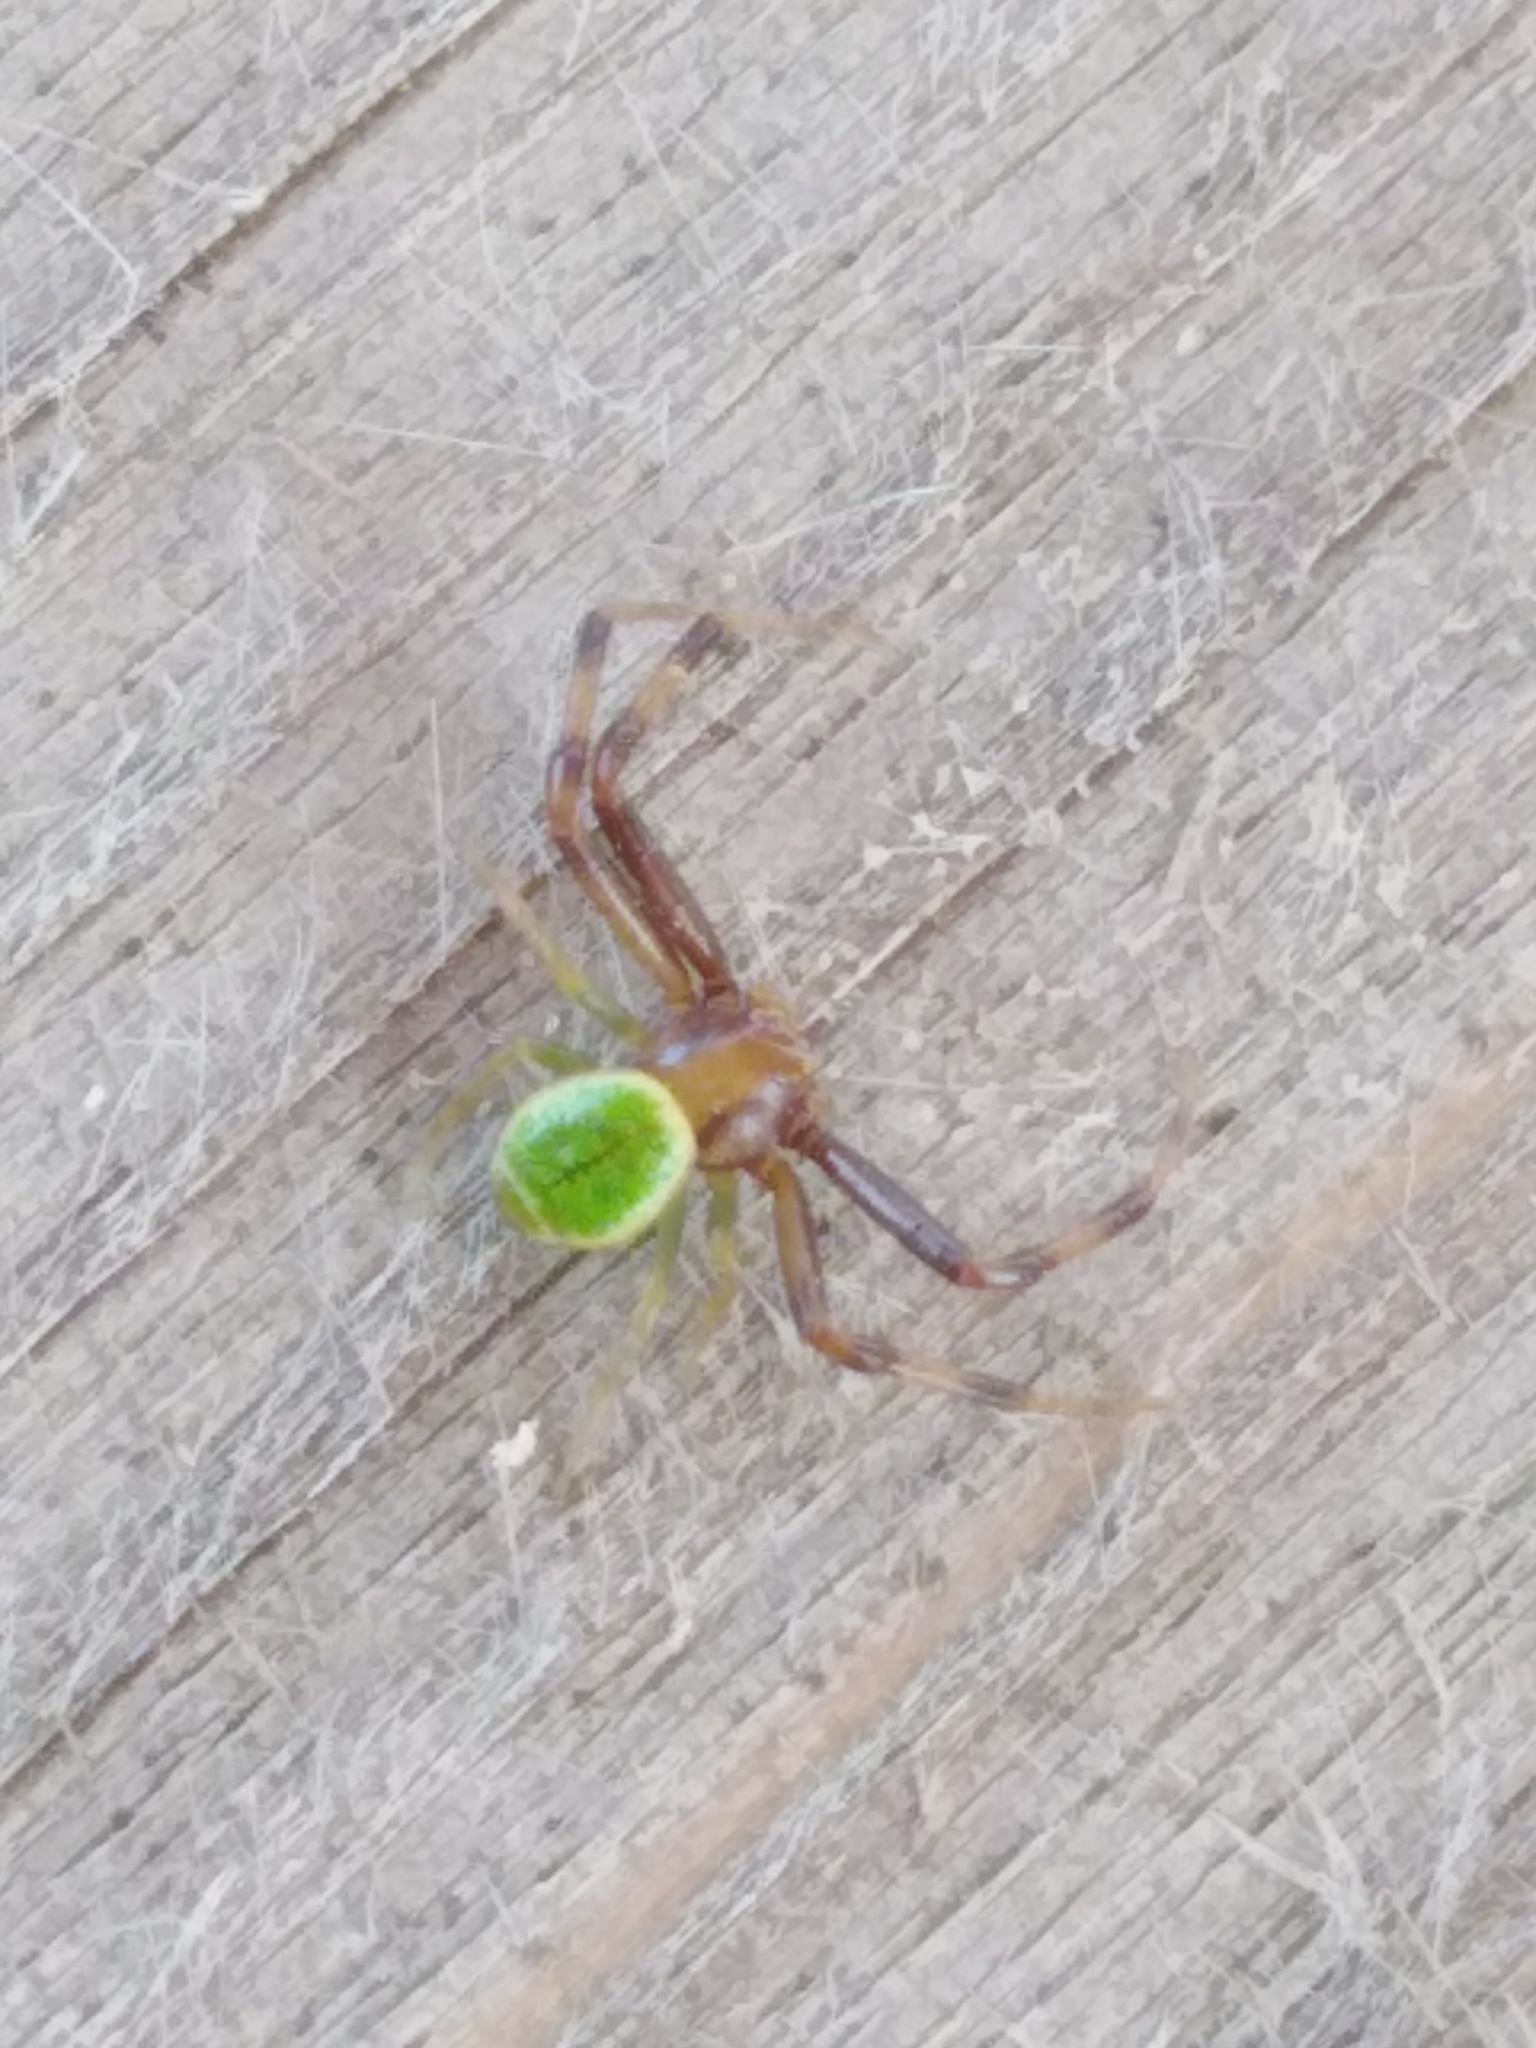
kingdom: Animalia
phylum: Arthropoda
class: Arachnida
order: Araneae
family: Thomisidae
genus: Ebrechtella
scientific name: Ebrechtella tricuspidata
